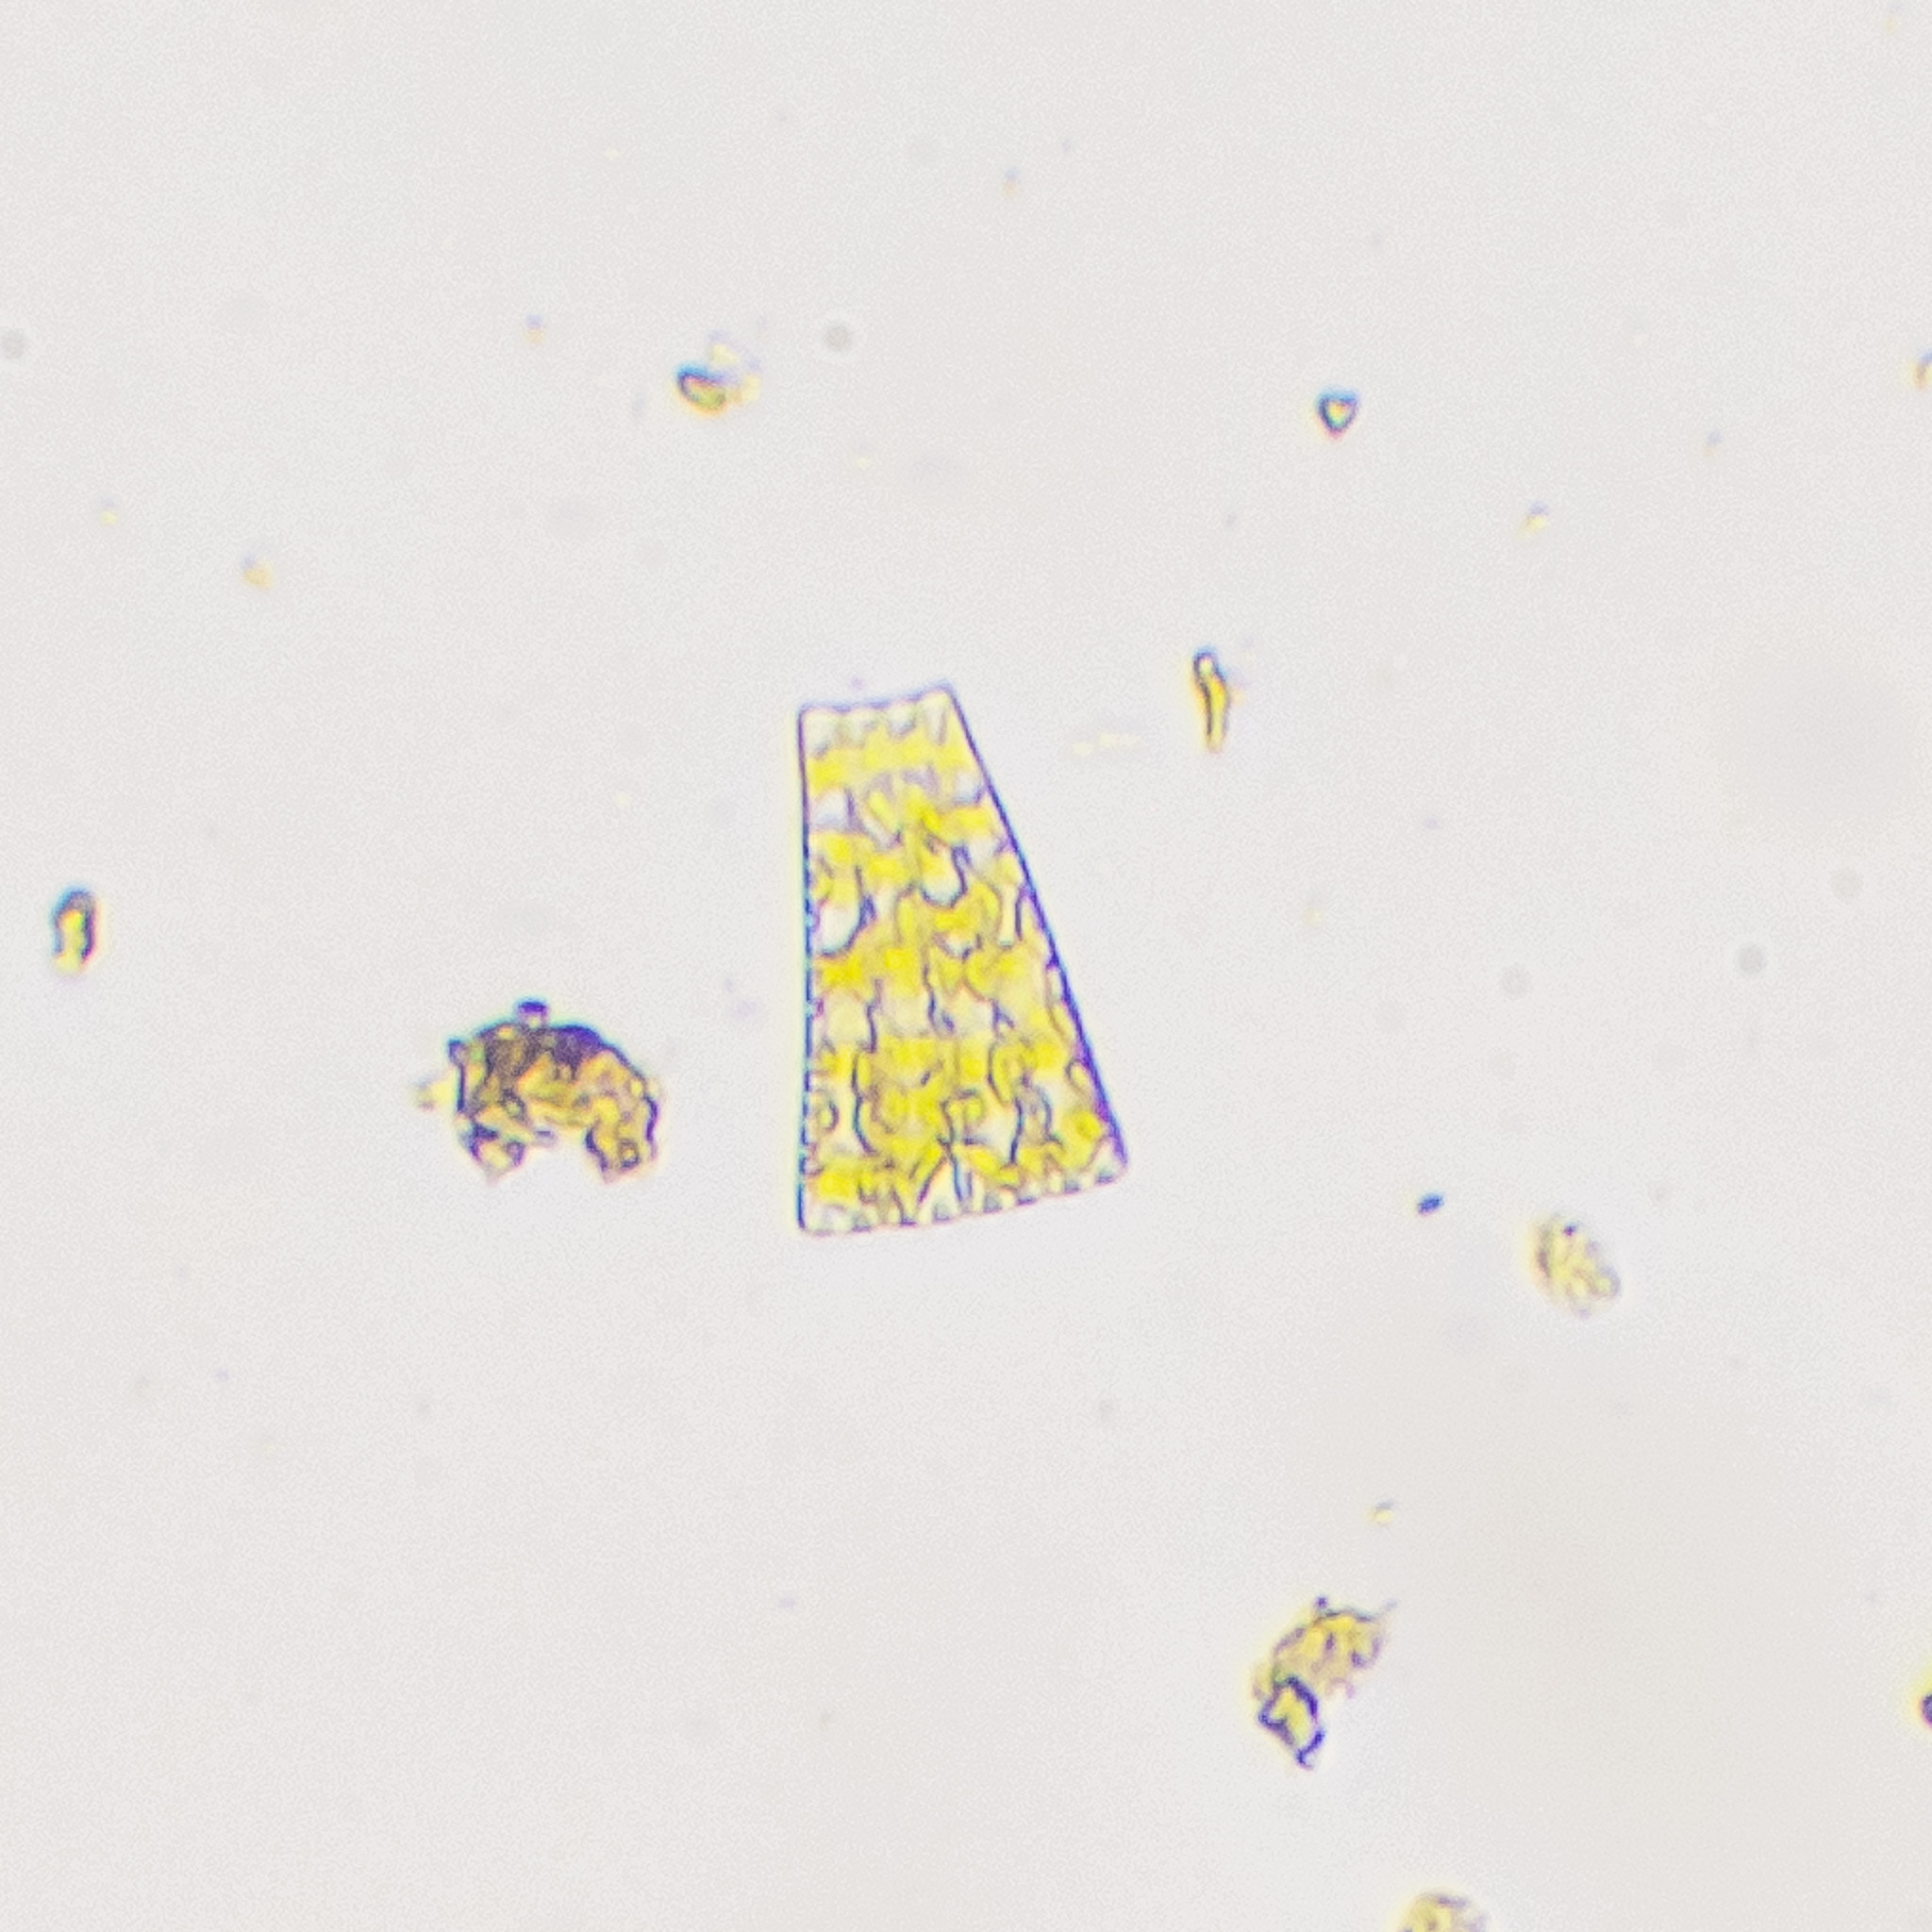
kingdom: Chromista
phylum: Ochrophyta
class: Bacillariophyceae
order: Fragilariales
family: Fragilariaceae
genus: Meridion
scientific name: Meridion circulare
